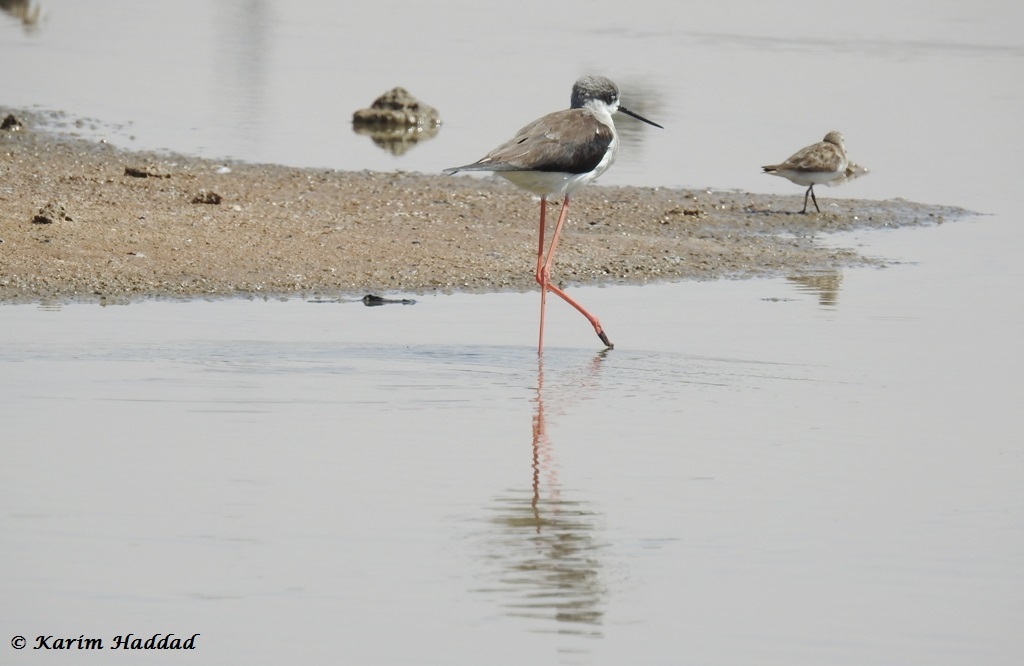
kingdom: Animalia
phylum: Chordata
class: Aves
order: Charadriiformes
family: Recurvirostridae
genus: Himantopus
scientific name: Himantopus himantopus
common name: Black-winged stilt
